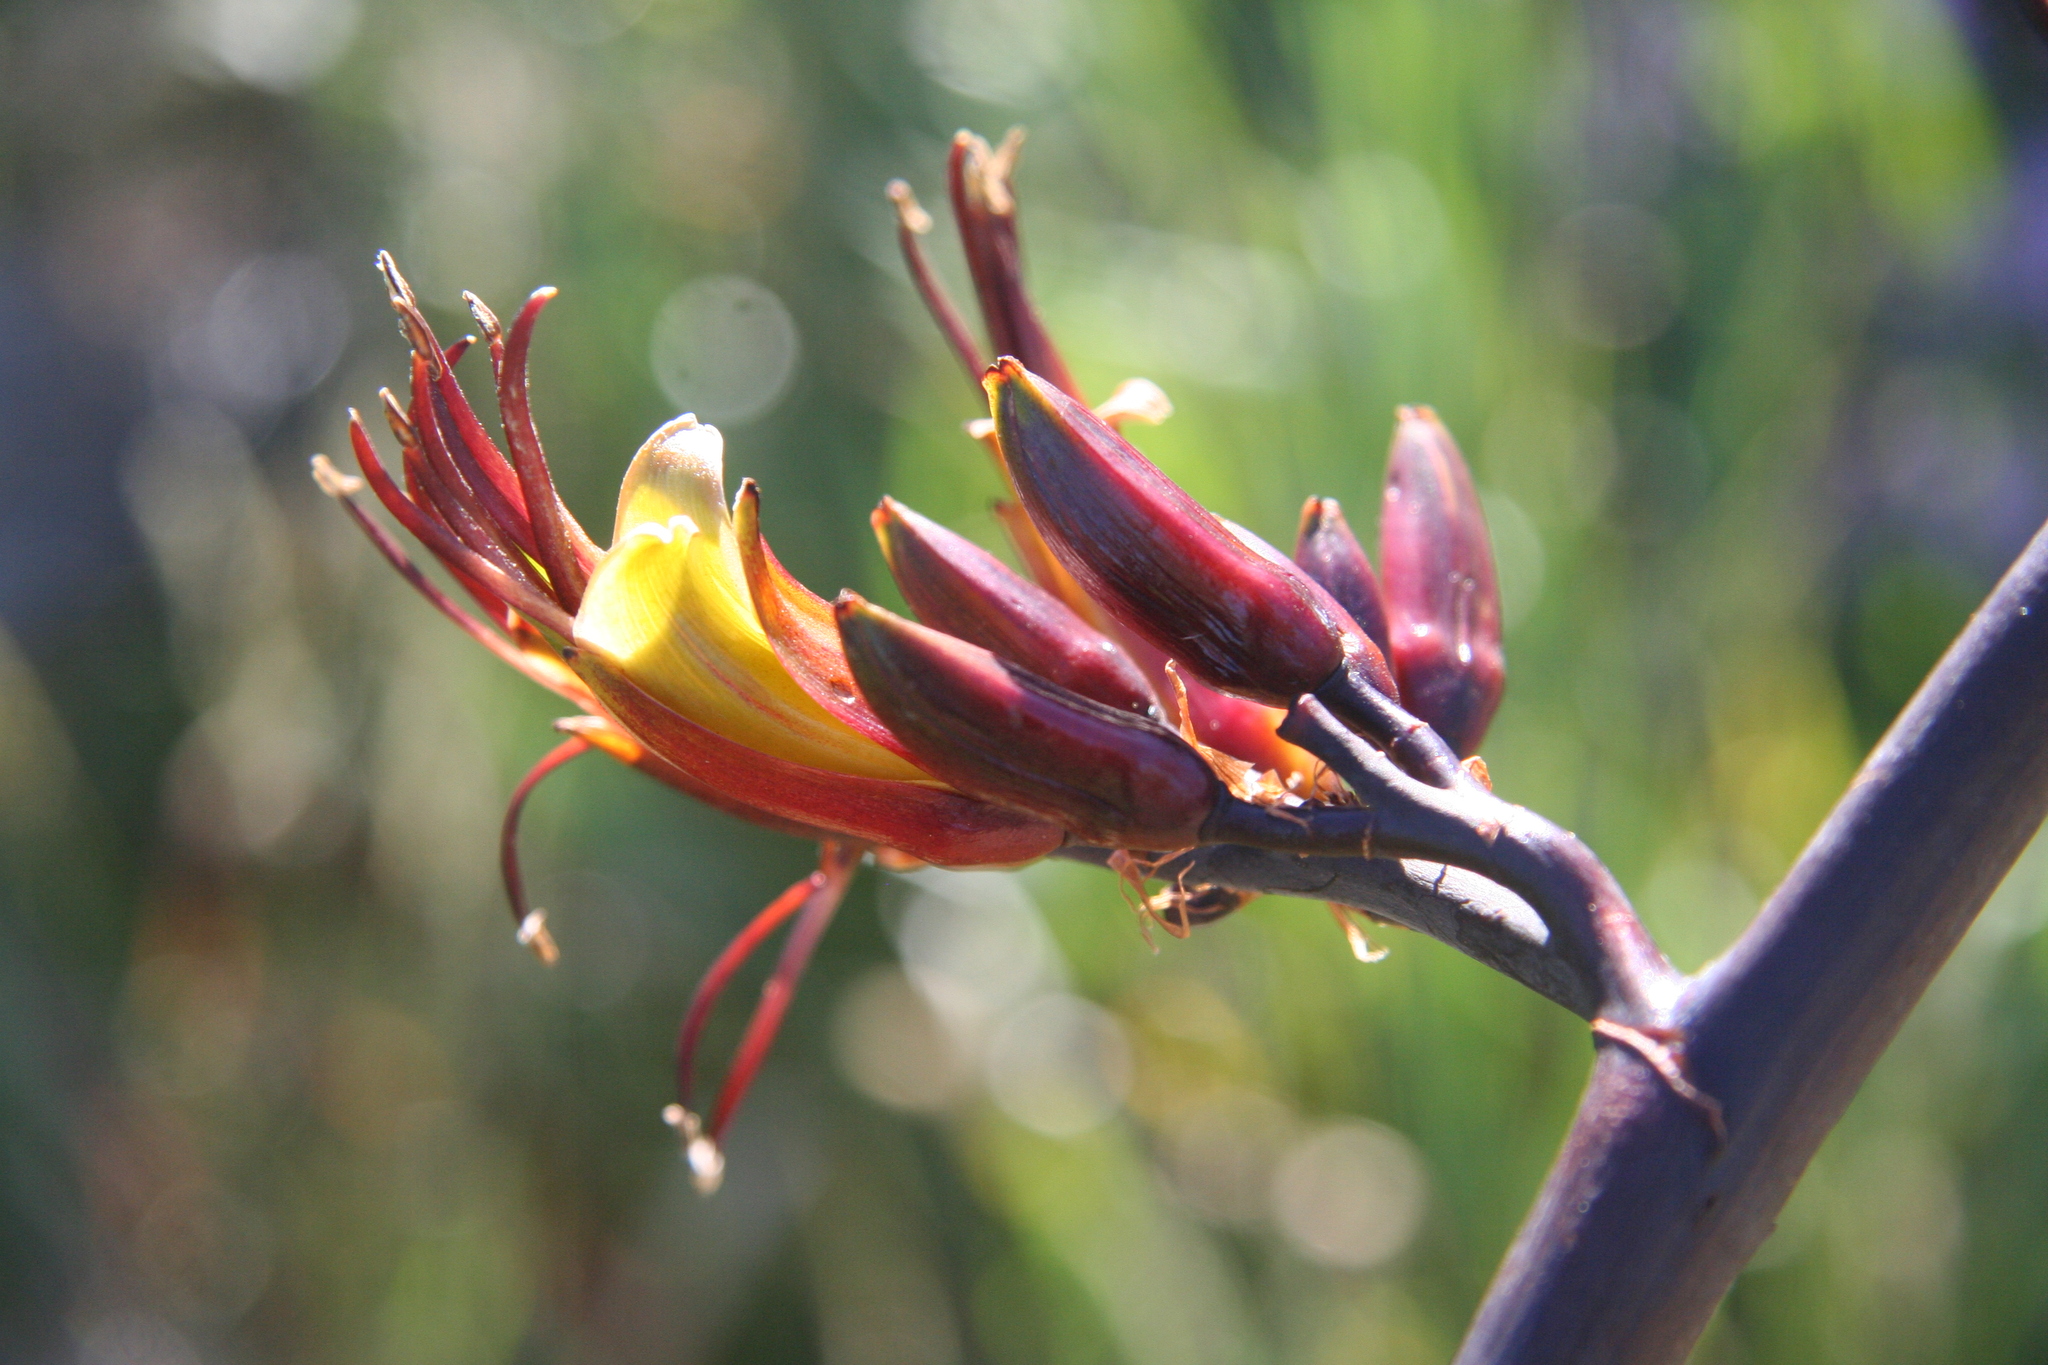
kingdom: Plantae
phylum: Tracheophyta
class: Liliopsida
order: Asparagales
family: Asphodelaceae
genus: Phormium
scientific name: Phormium tenax
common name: New zealand flax
